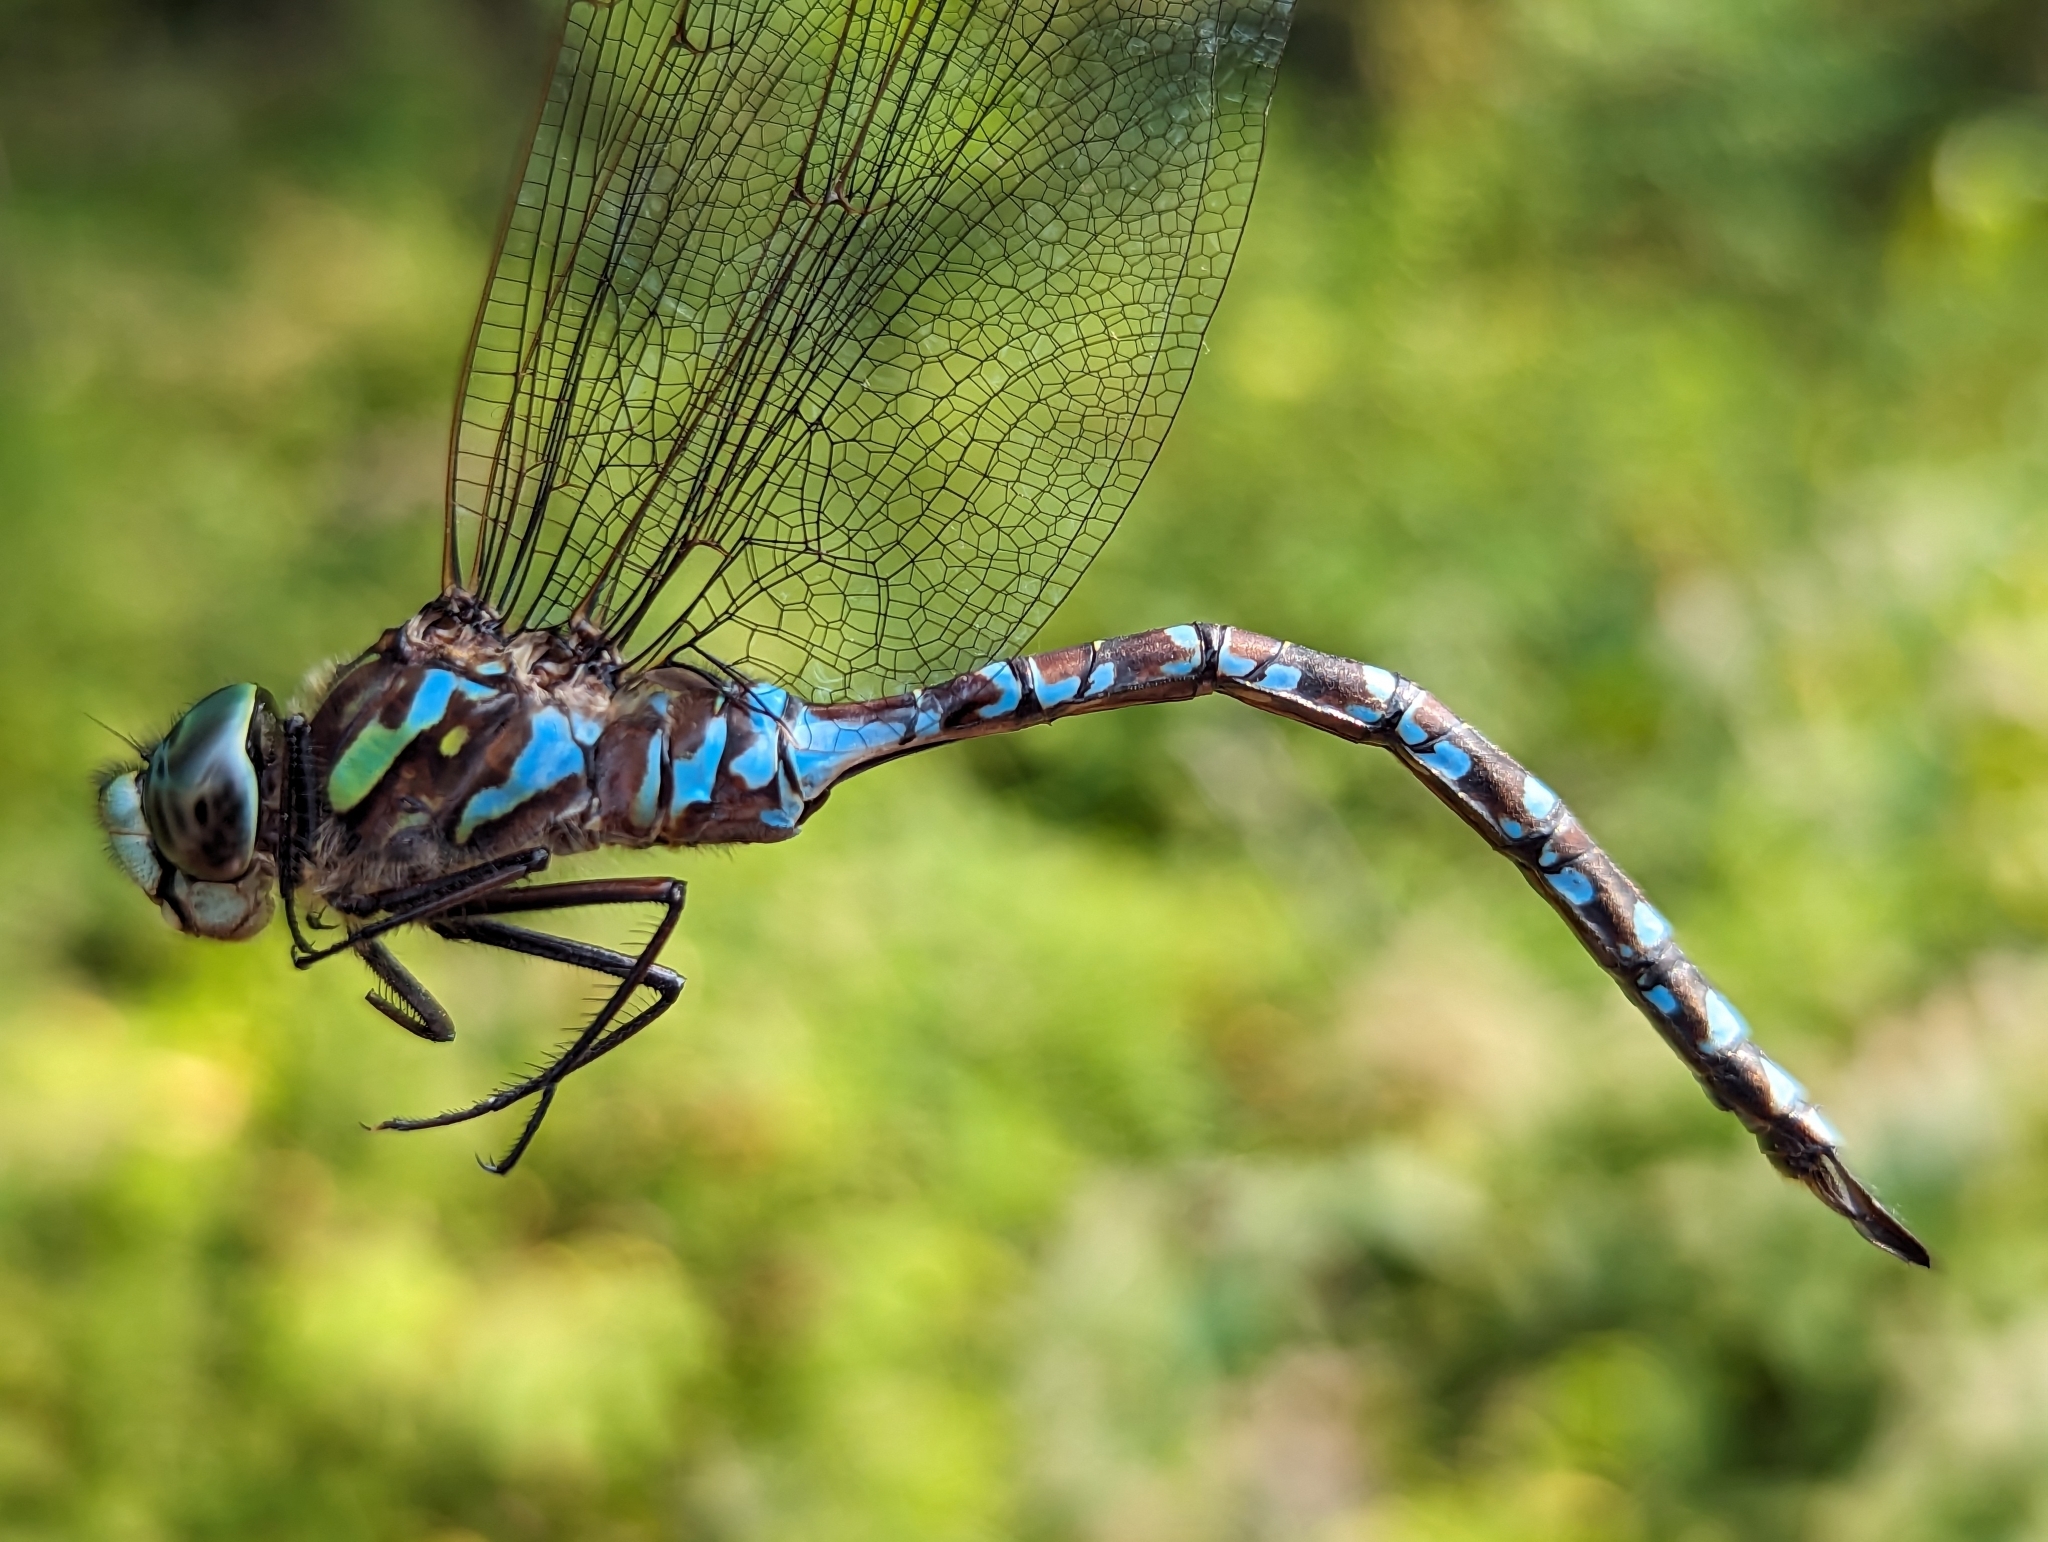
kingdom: Animalia
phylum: Arthropoda
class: Insecta
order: Odonata
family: Aeshnidae
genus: Aeshna
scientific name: Aeshna canadensis
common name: Canada darner
